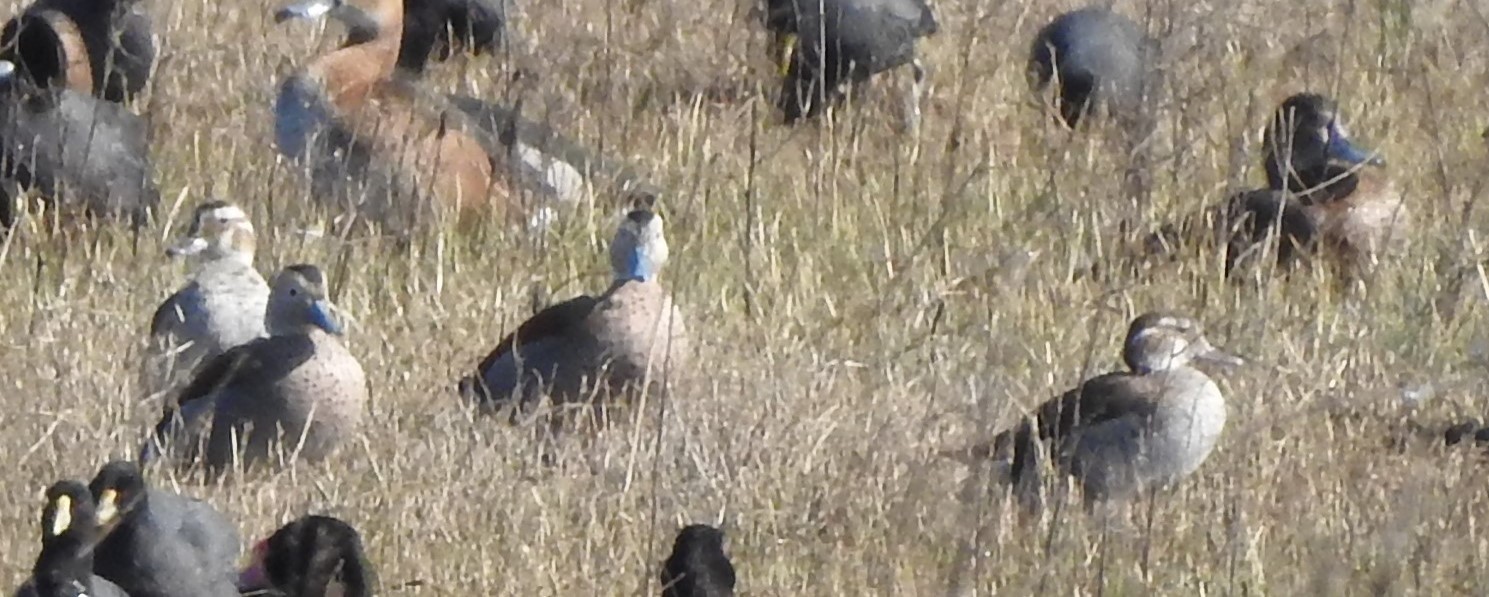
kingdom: Animalia
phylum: Chordata
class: Aves
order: Anseriformes
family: Anatidae
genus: Callonetta
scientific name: Callonetta leucophrys
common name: Ringed teal
